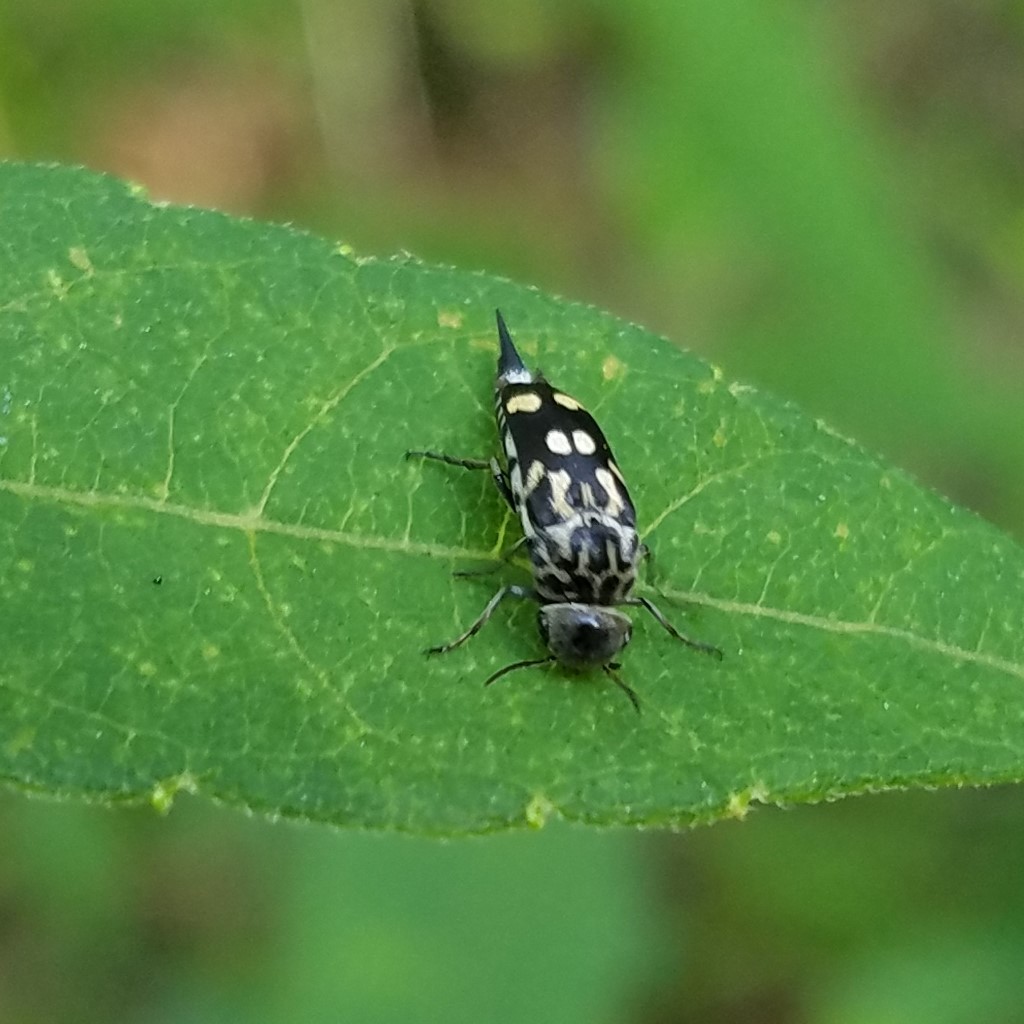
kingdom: Animalia
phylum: Arthropoda
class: Insecta
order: Coleoptera
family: Mordellidae
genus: Hoshihananomia
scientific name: Hoshihananomia octopunctata
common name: Eight-spotted tumbling flower beetle
